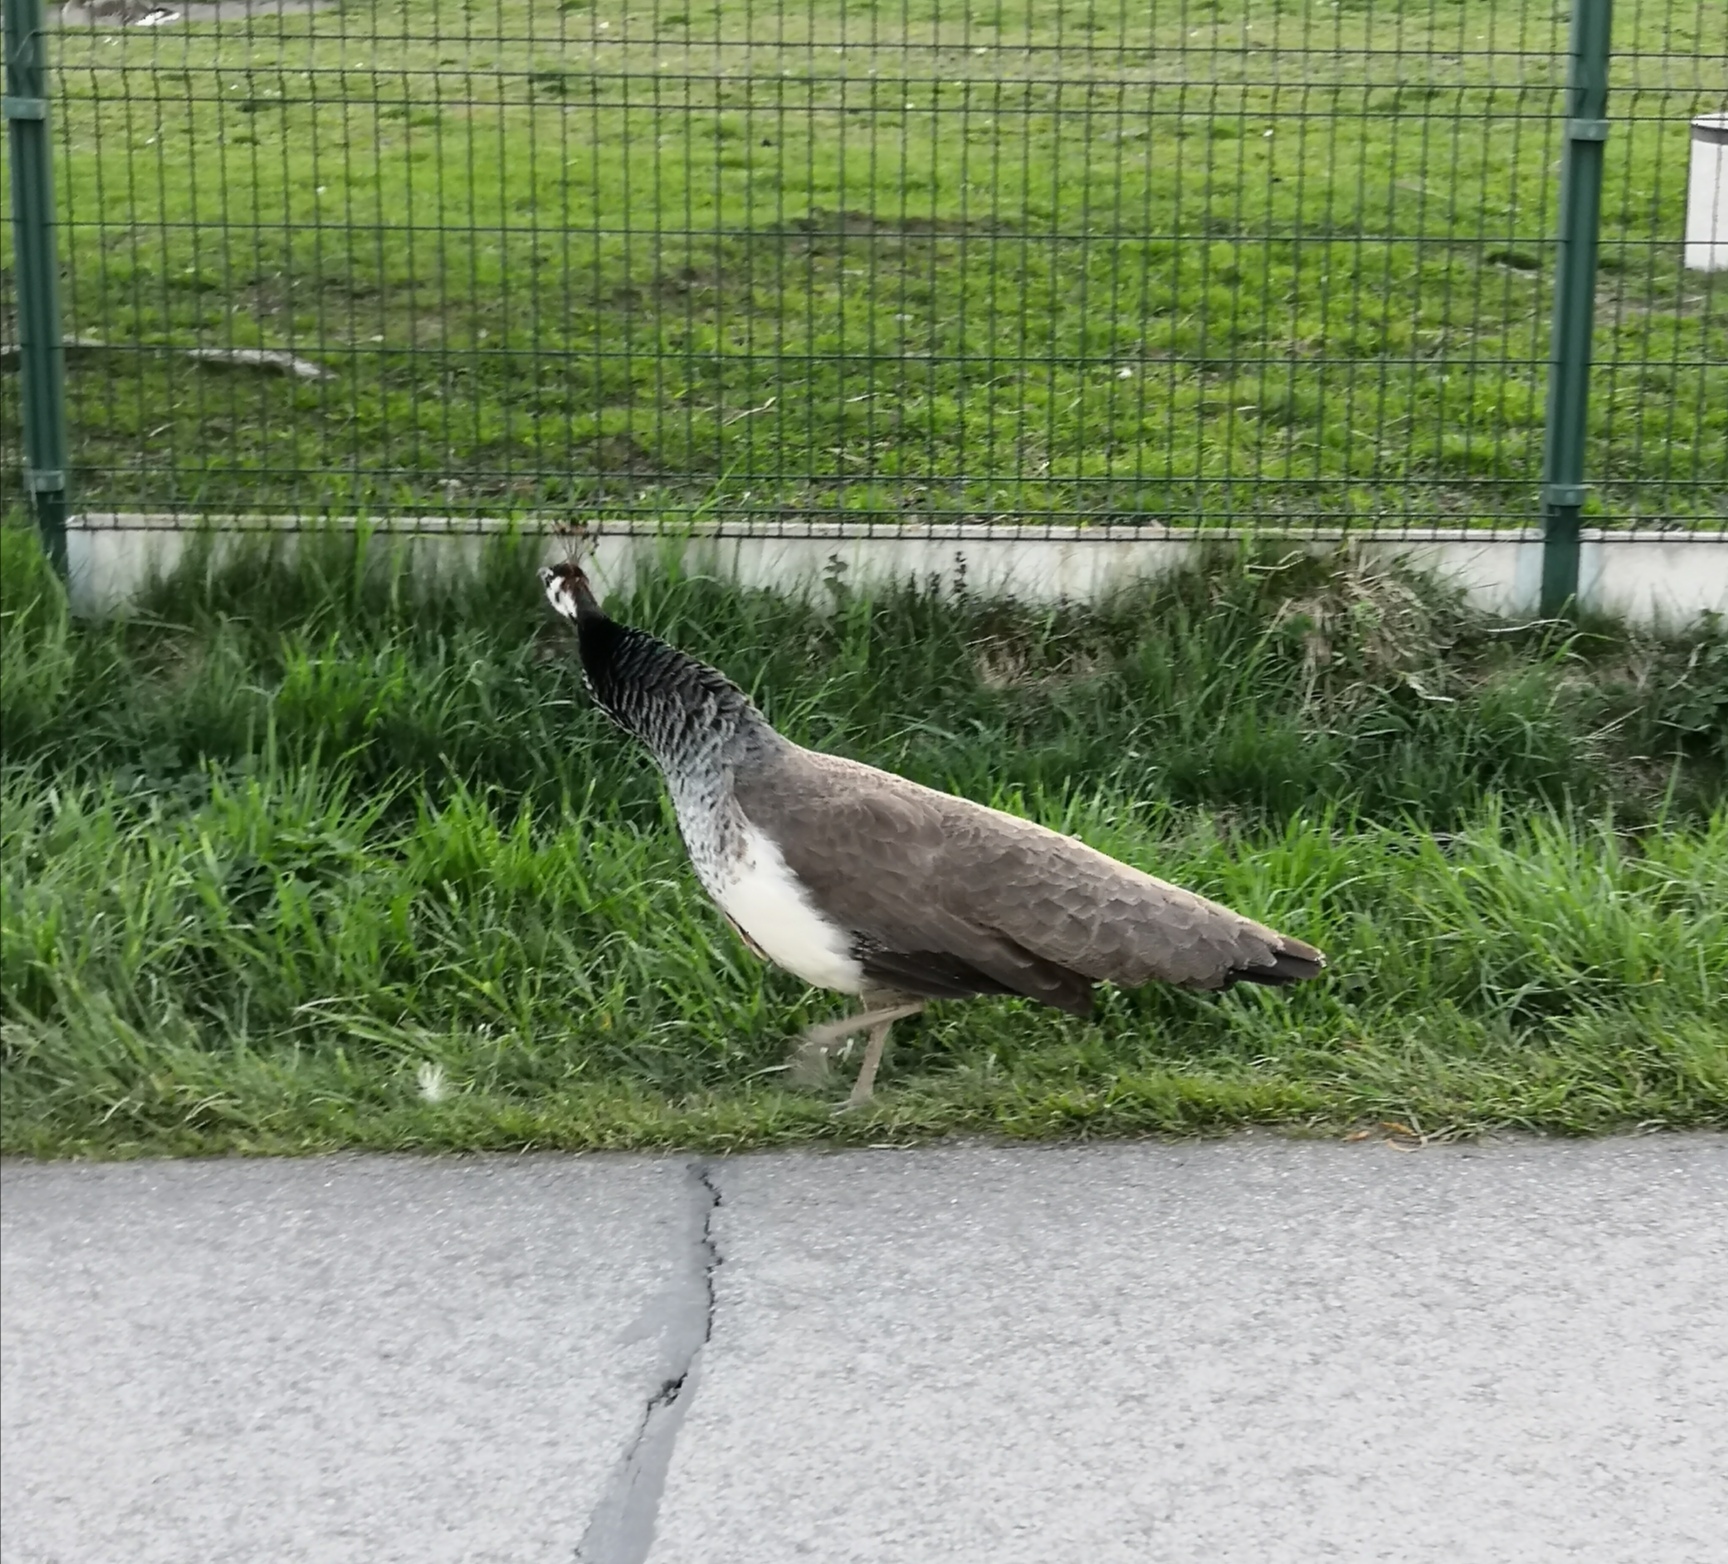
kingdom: Animalia
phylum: Chordata
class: Aves
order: Galliformes
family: Phasianidae
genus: Pavo
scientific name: Pavo cristatus
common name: Indian peafowl
